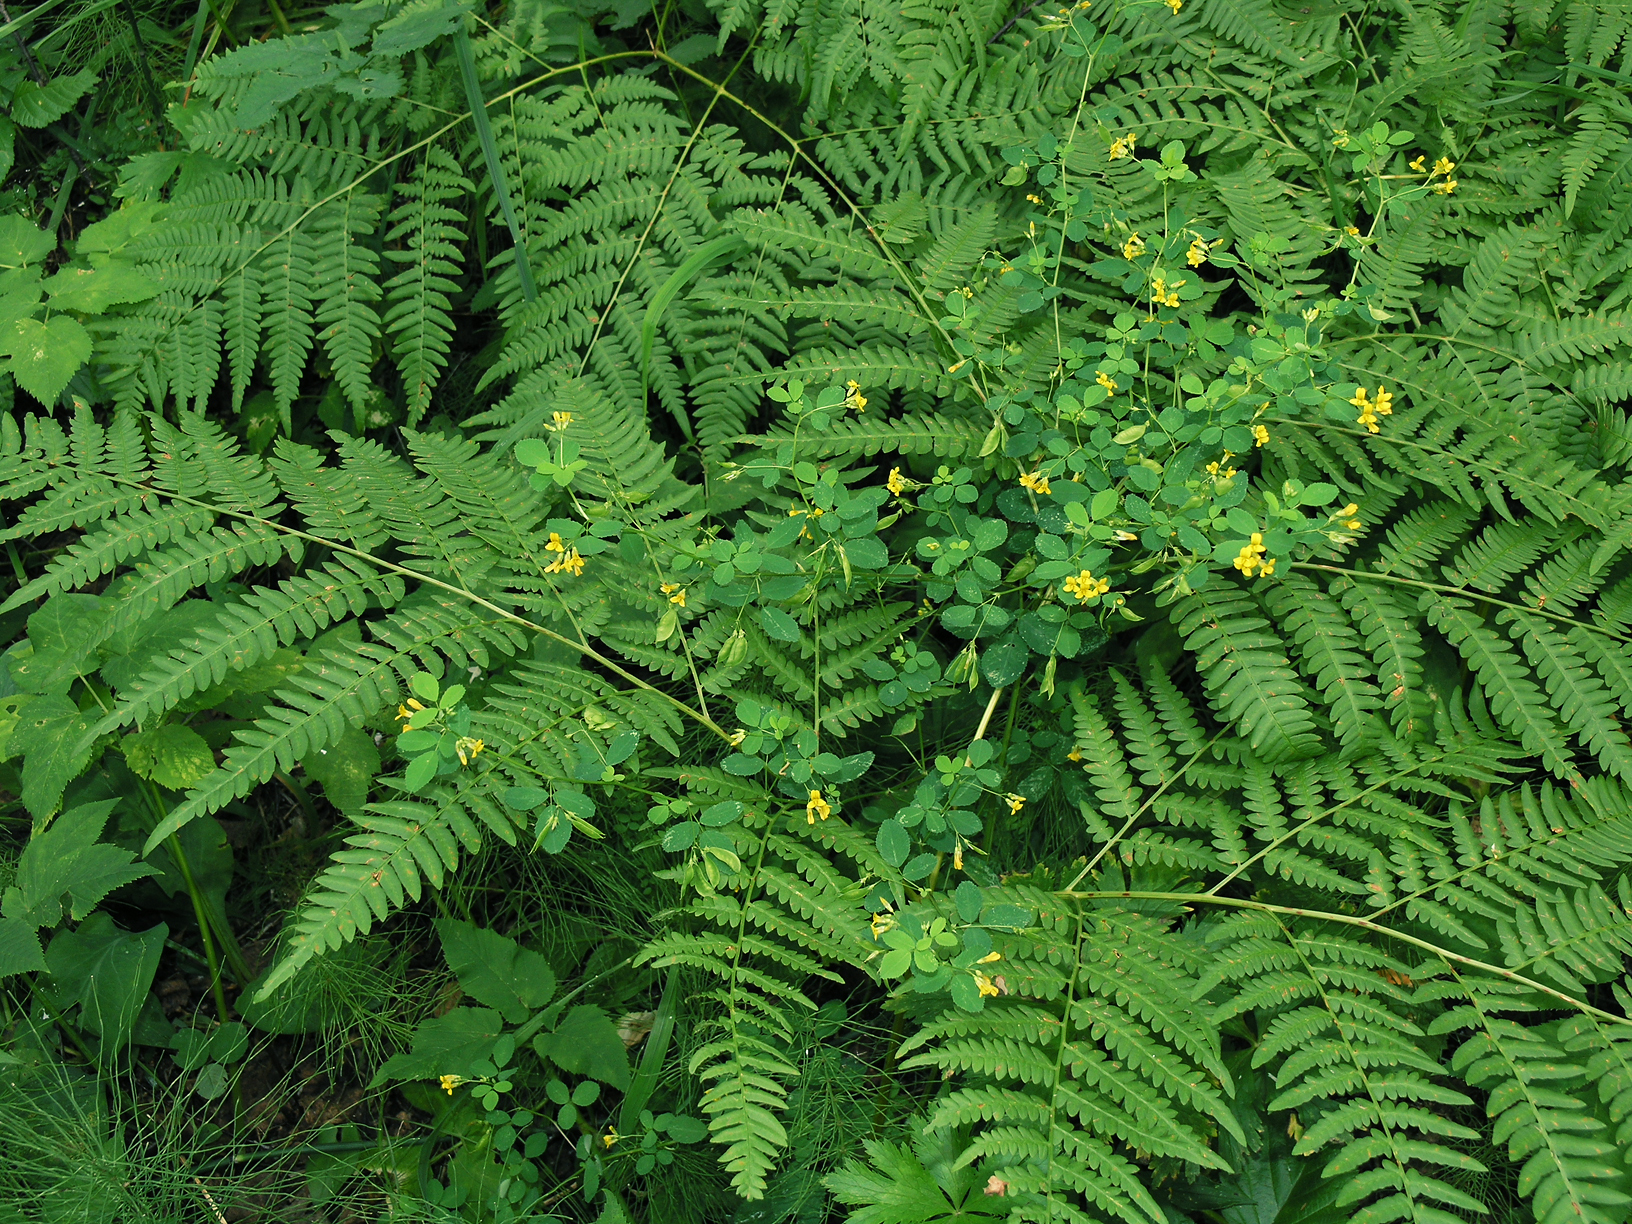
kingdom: Plantae
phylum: Tracheophyta
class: Magnoliopsida
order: Fabales
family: Fabaceae
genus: Medicago
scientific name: Medicago platycarpos
